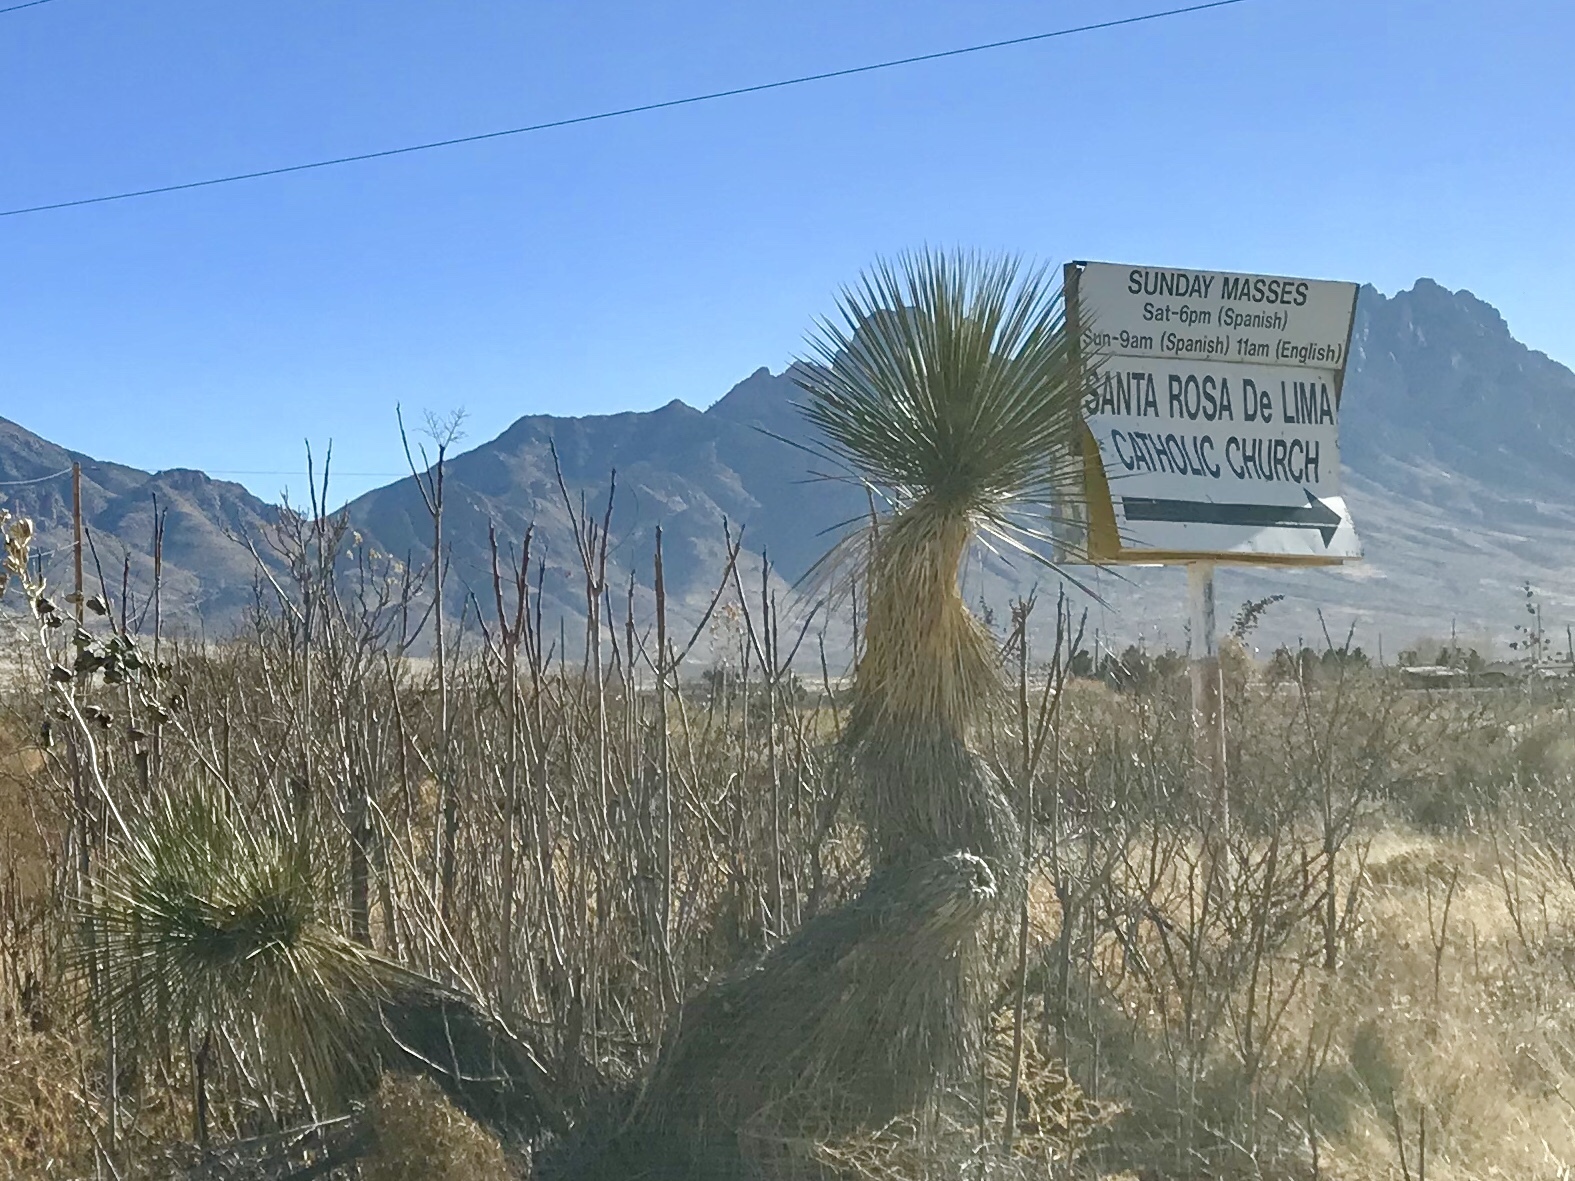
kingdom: Plantae
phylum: Tracheophyta
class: Liliopsida
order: Asparagales
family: Asparagaceae
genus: Yucca
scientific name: Yucca elata
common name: Palmella
